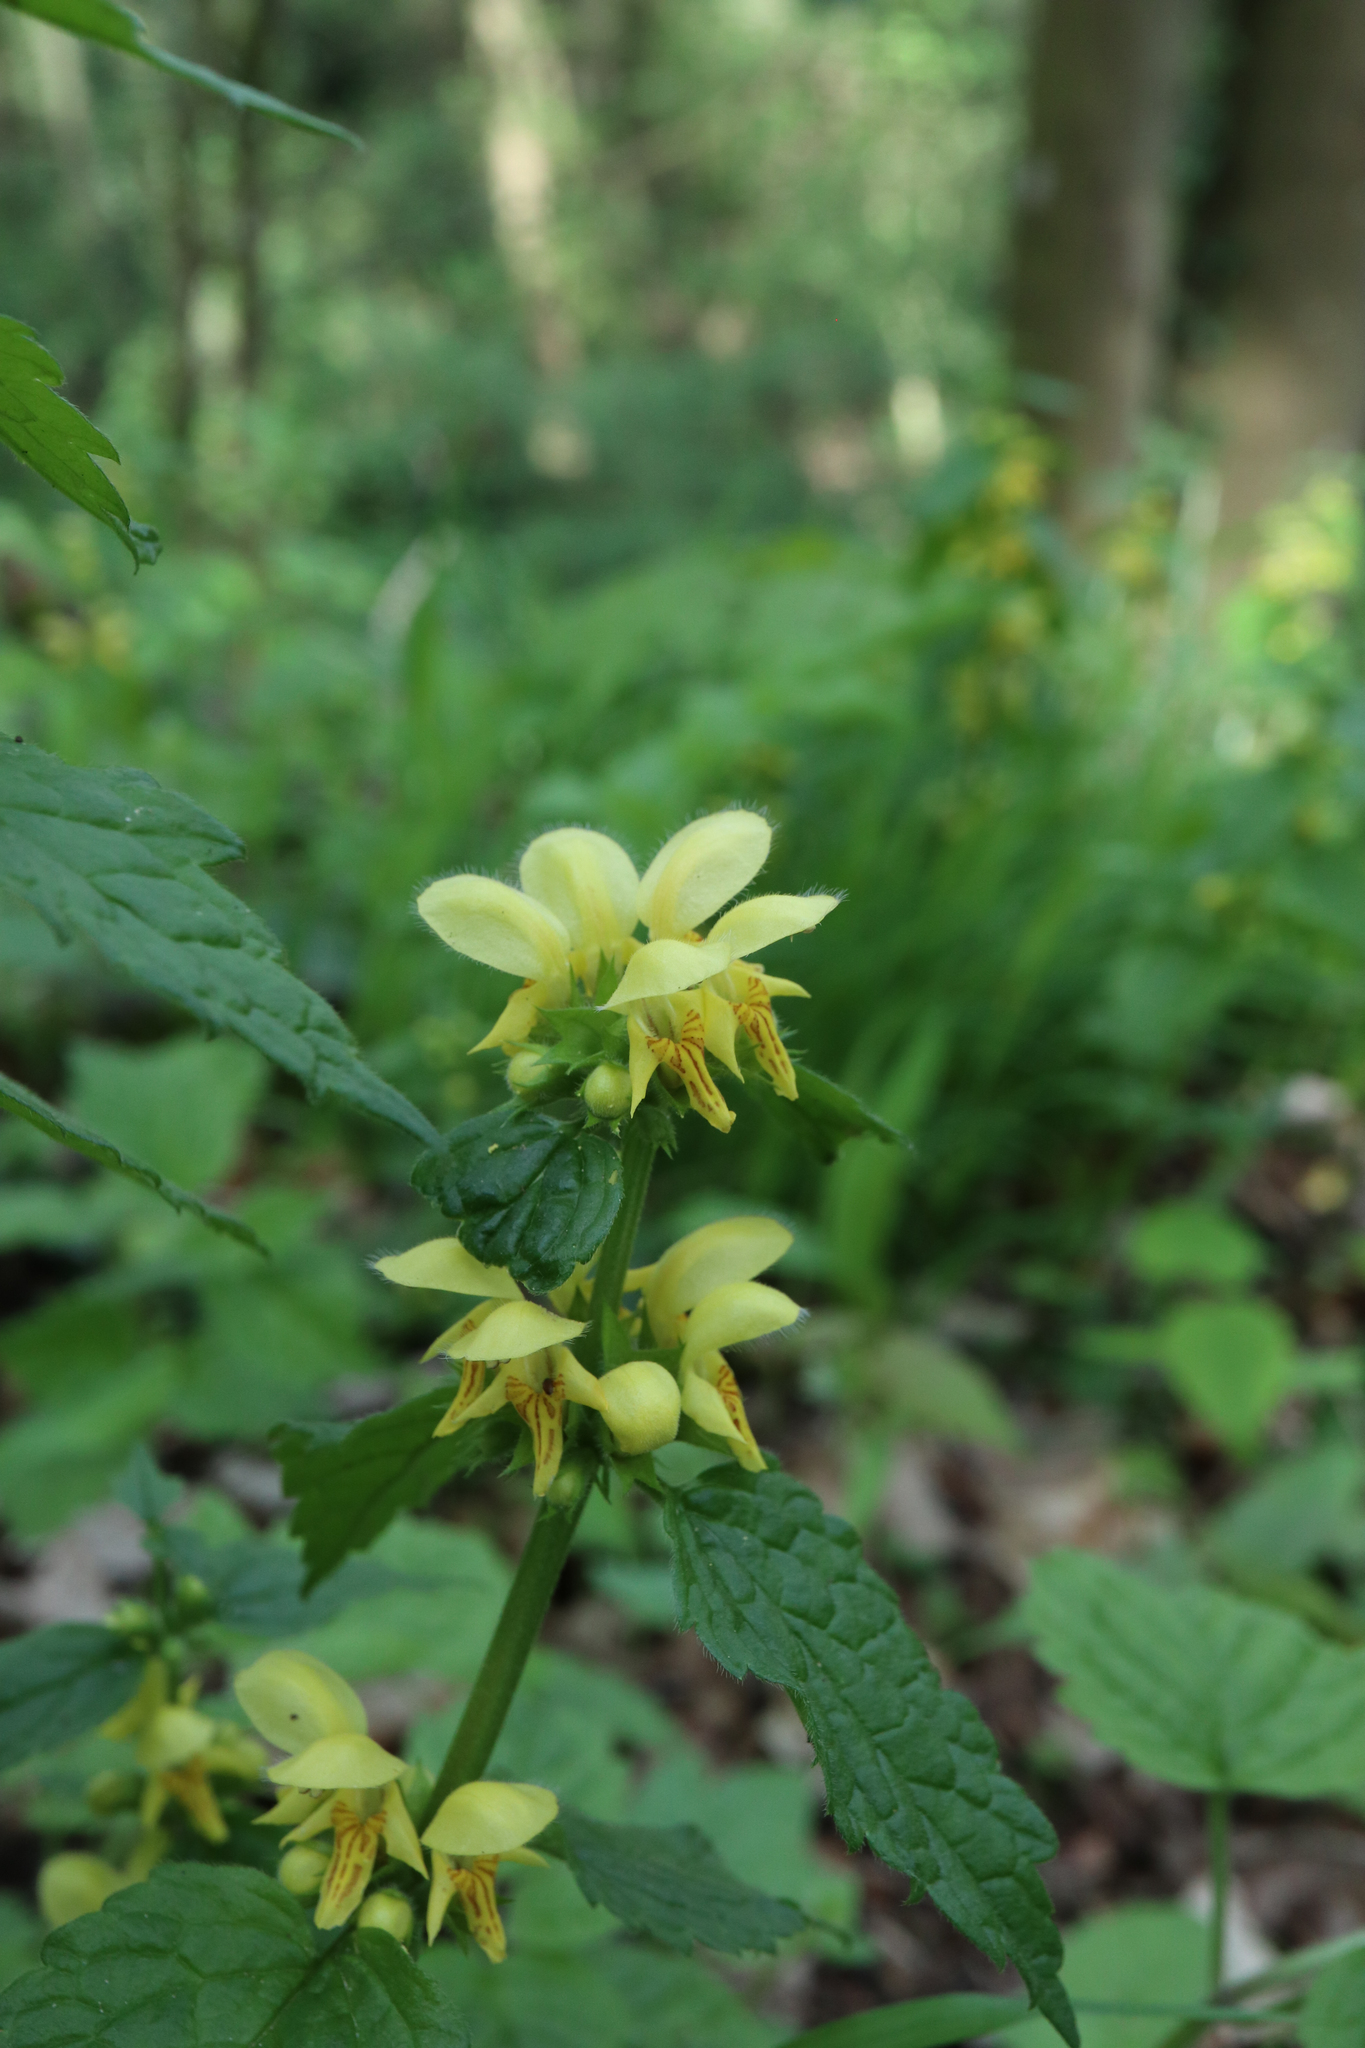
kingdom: Plantae
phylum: Tracheophyta
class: Magnoliopsida
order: Lamiales
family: Lamiaceae
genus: Lamium
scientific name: Lamium galeobdolon
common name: Yellow archangel
